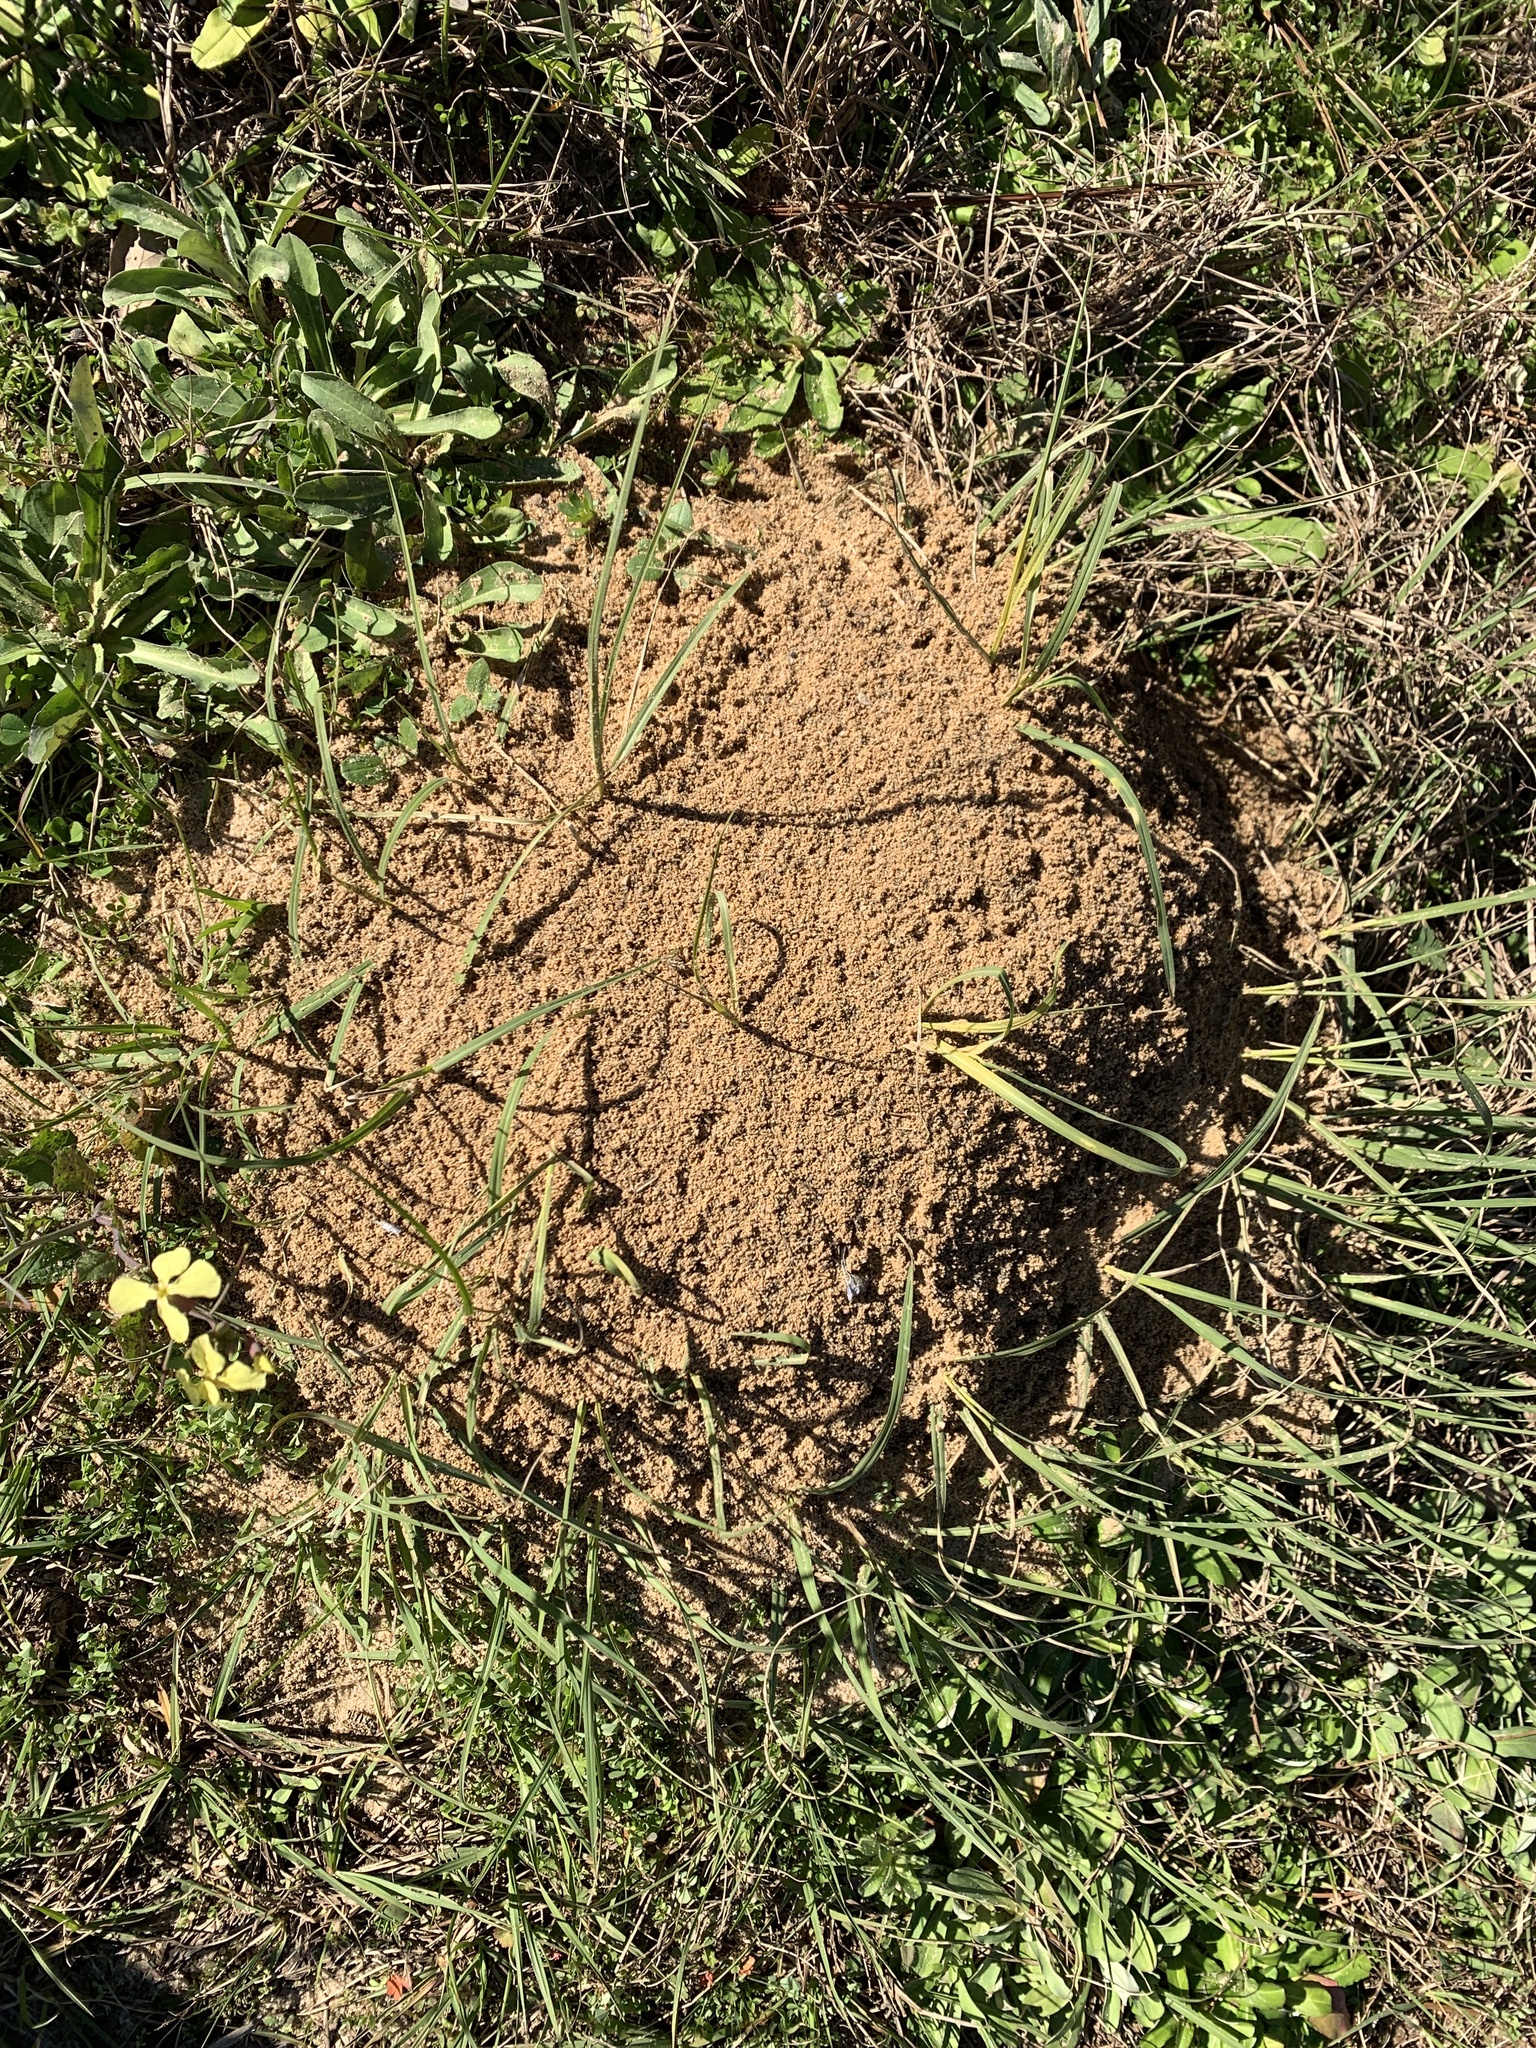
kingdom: Animalia
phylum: Arthropoda
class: Insecta
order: Hymenoptera
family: Formicidae
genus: Solenopsis
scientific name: Solenopsis invicta
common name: Red imported fire ant
